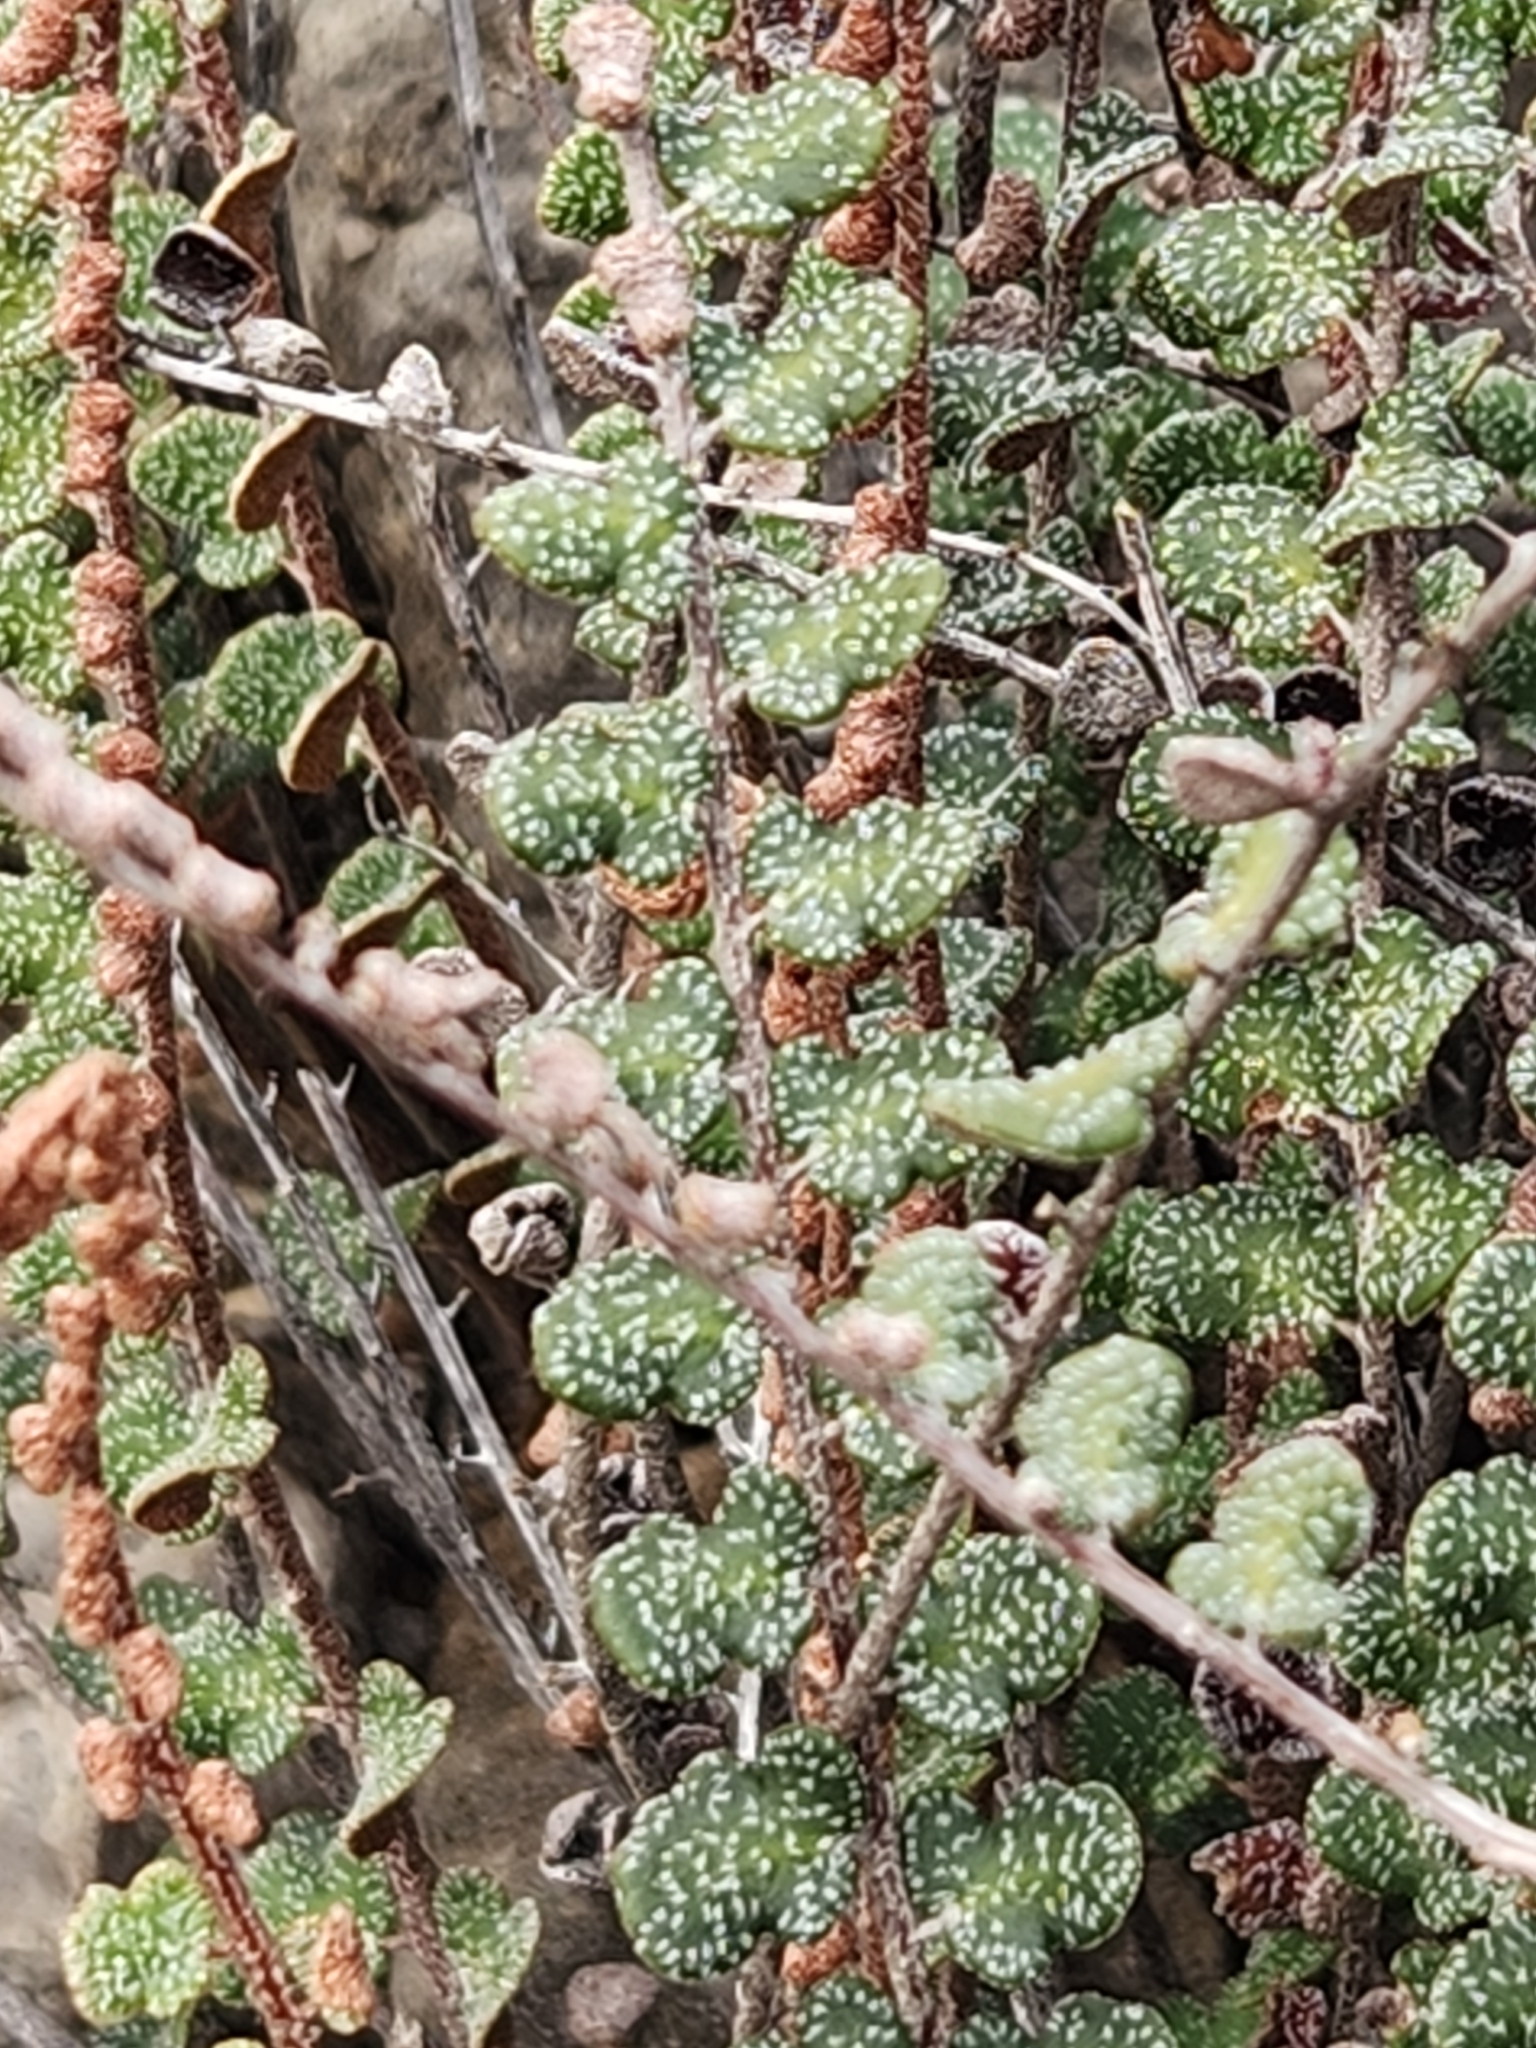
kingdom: Plantae
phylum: Tracheophyta
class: Polypodiopsida
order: Polypodiales
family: Pteridaceae
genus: Astrolepis
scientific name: Astrolepis cochisensis
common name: Scaly cloak fern
